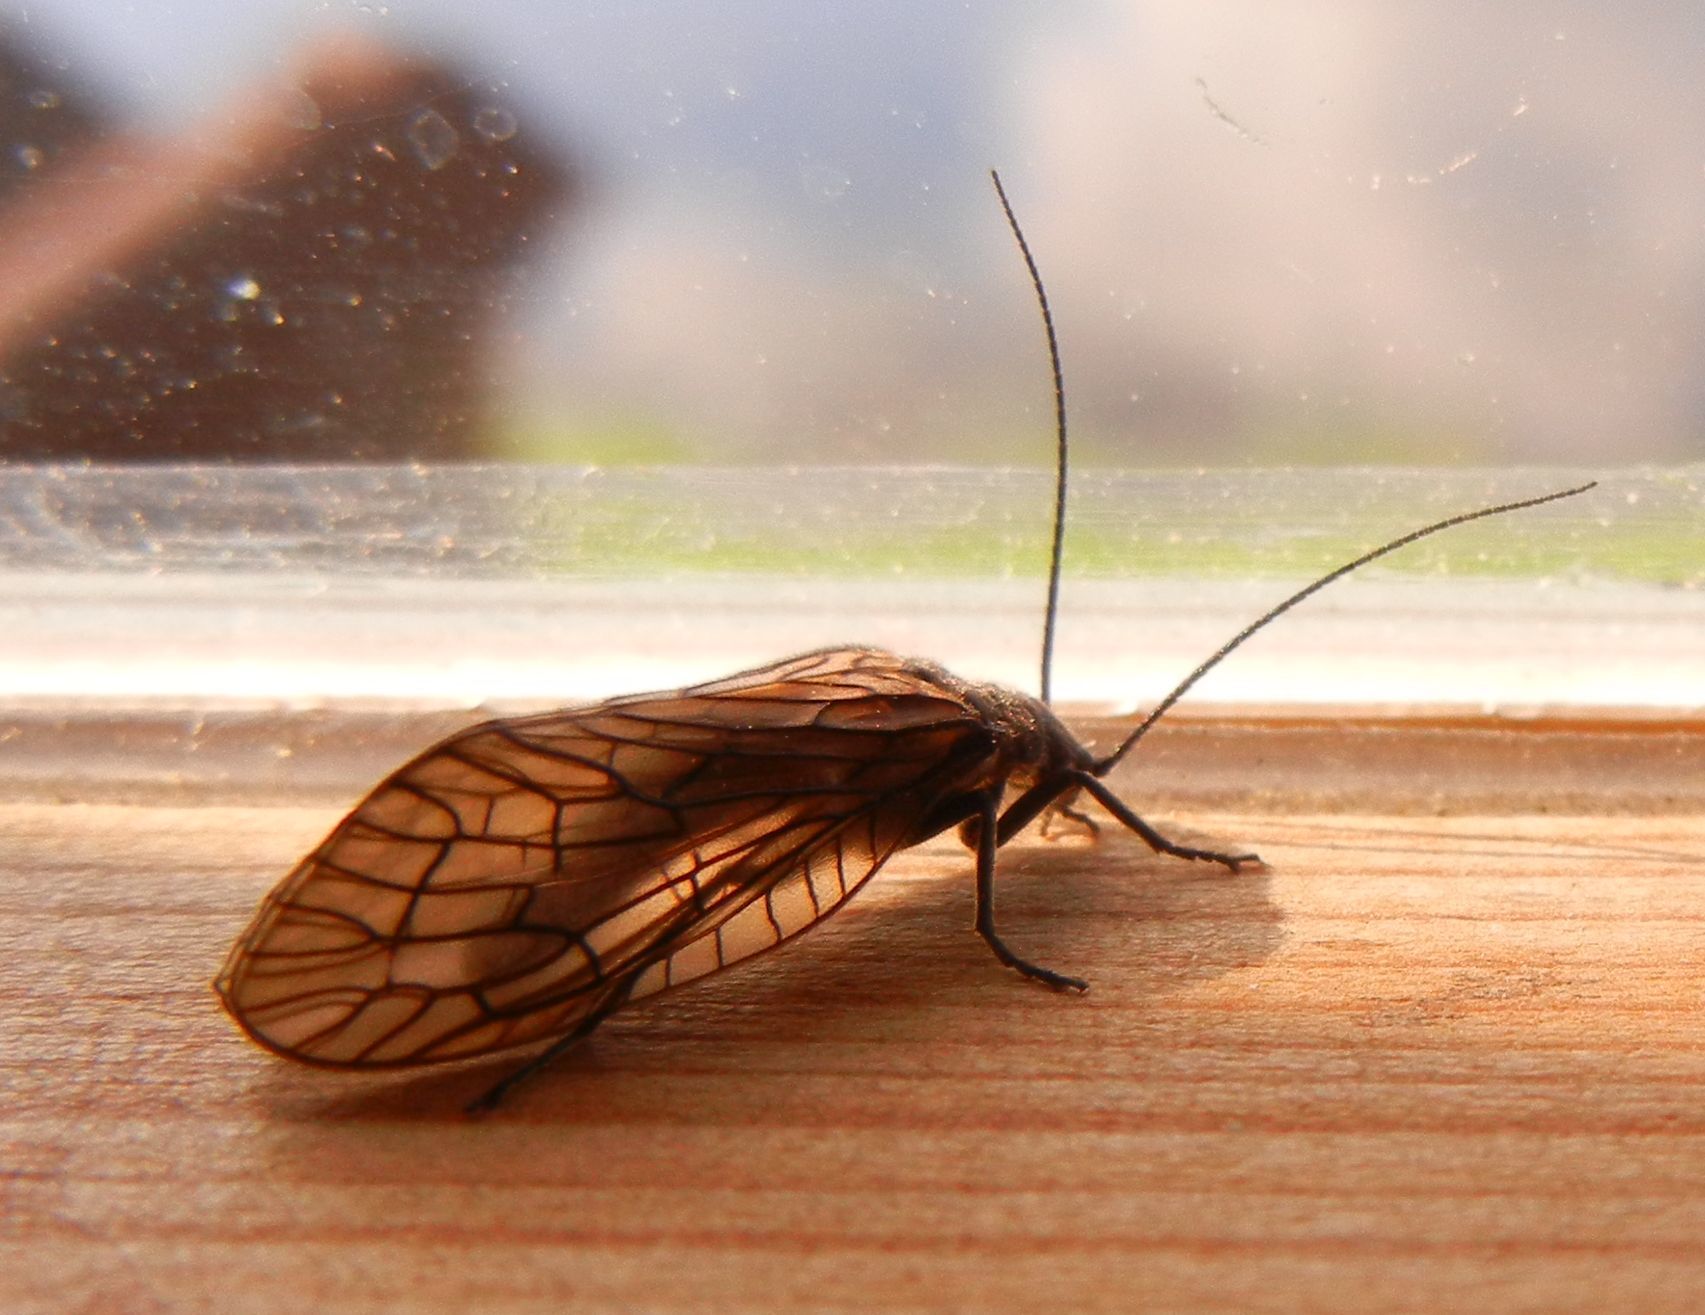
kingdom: Animalia
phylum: Arthropoda
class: Insecta
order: Megaloptera
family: Sialidae
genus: Sialis
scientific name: Sialis
